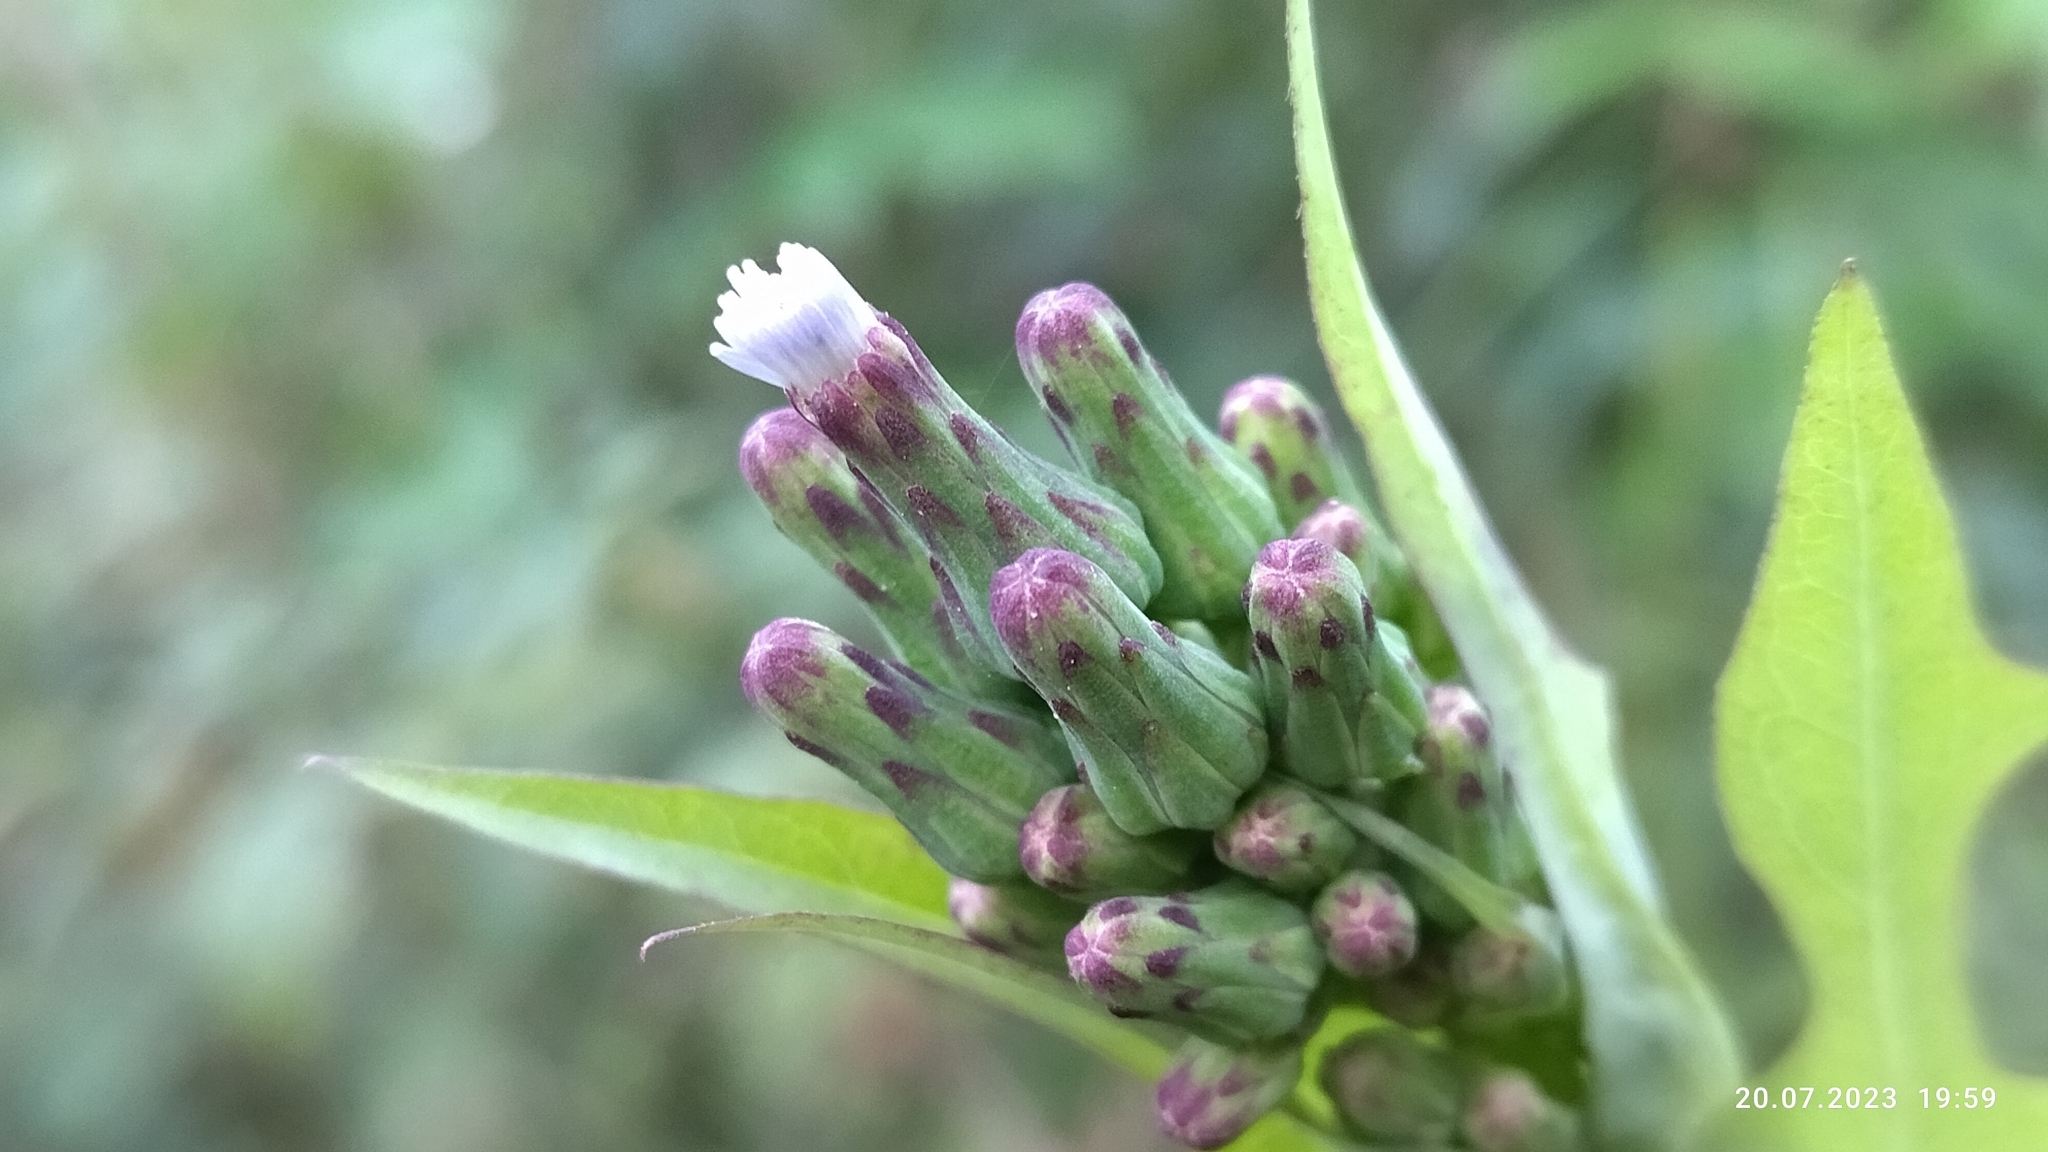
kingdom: Plantae
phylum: Tracheophyta
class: Magnoliopsida
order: Asterales
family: Asteraceae
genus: Lactuca
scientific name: Lactuca biennis
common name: Blue wood lettuce
